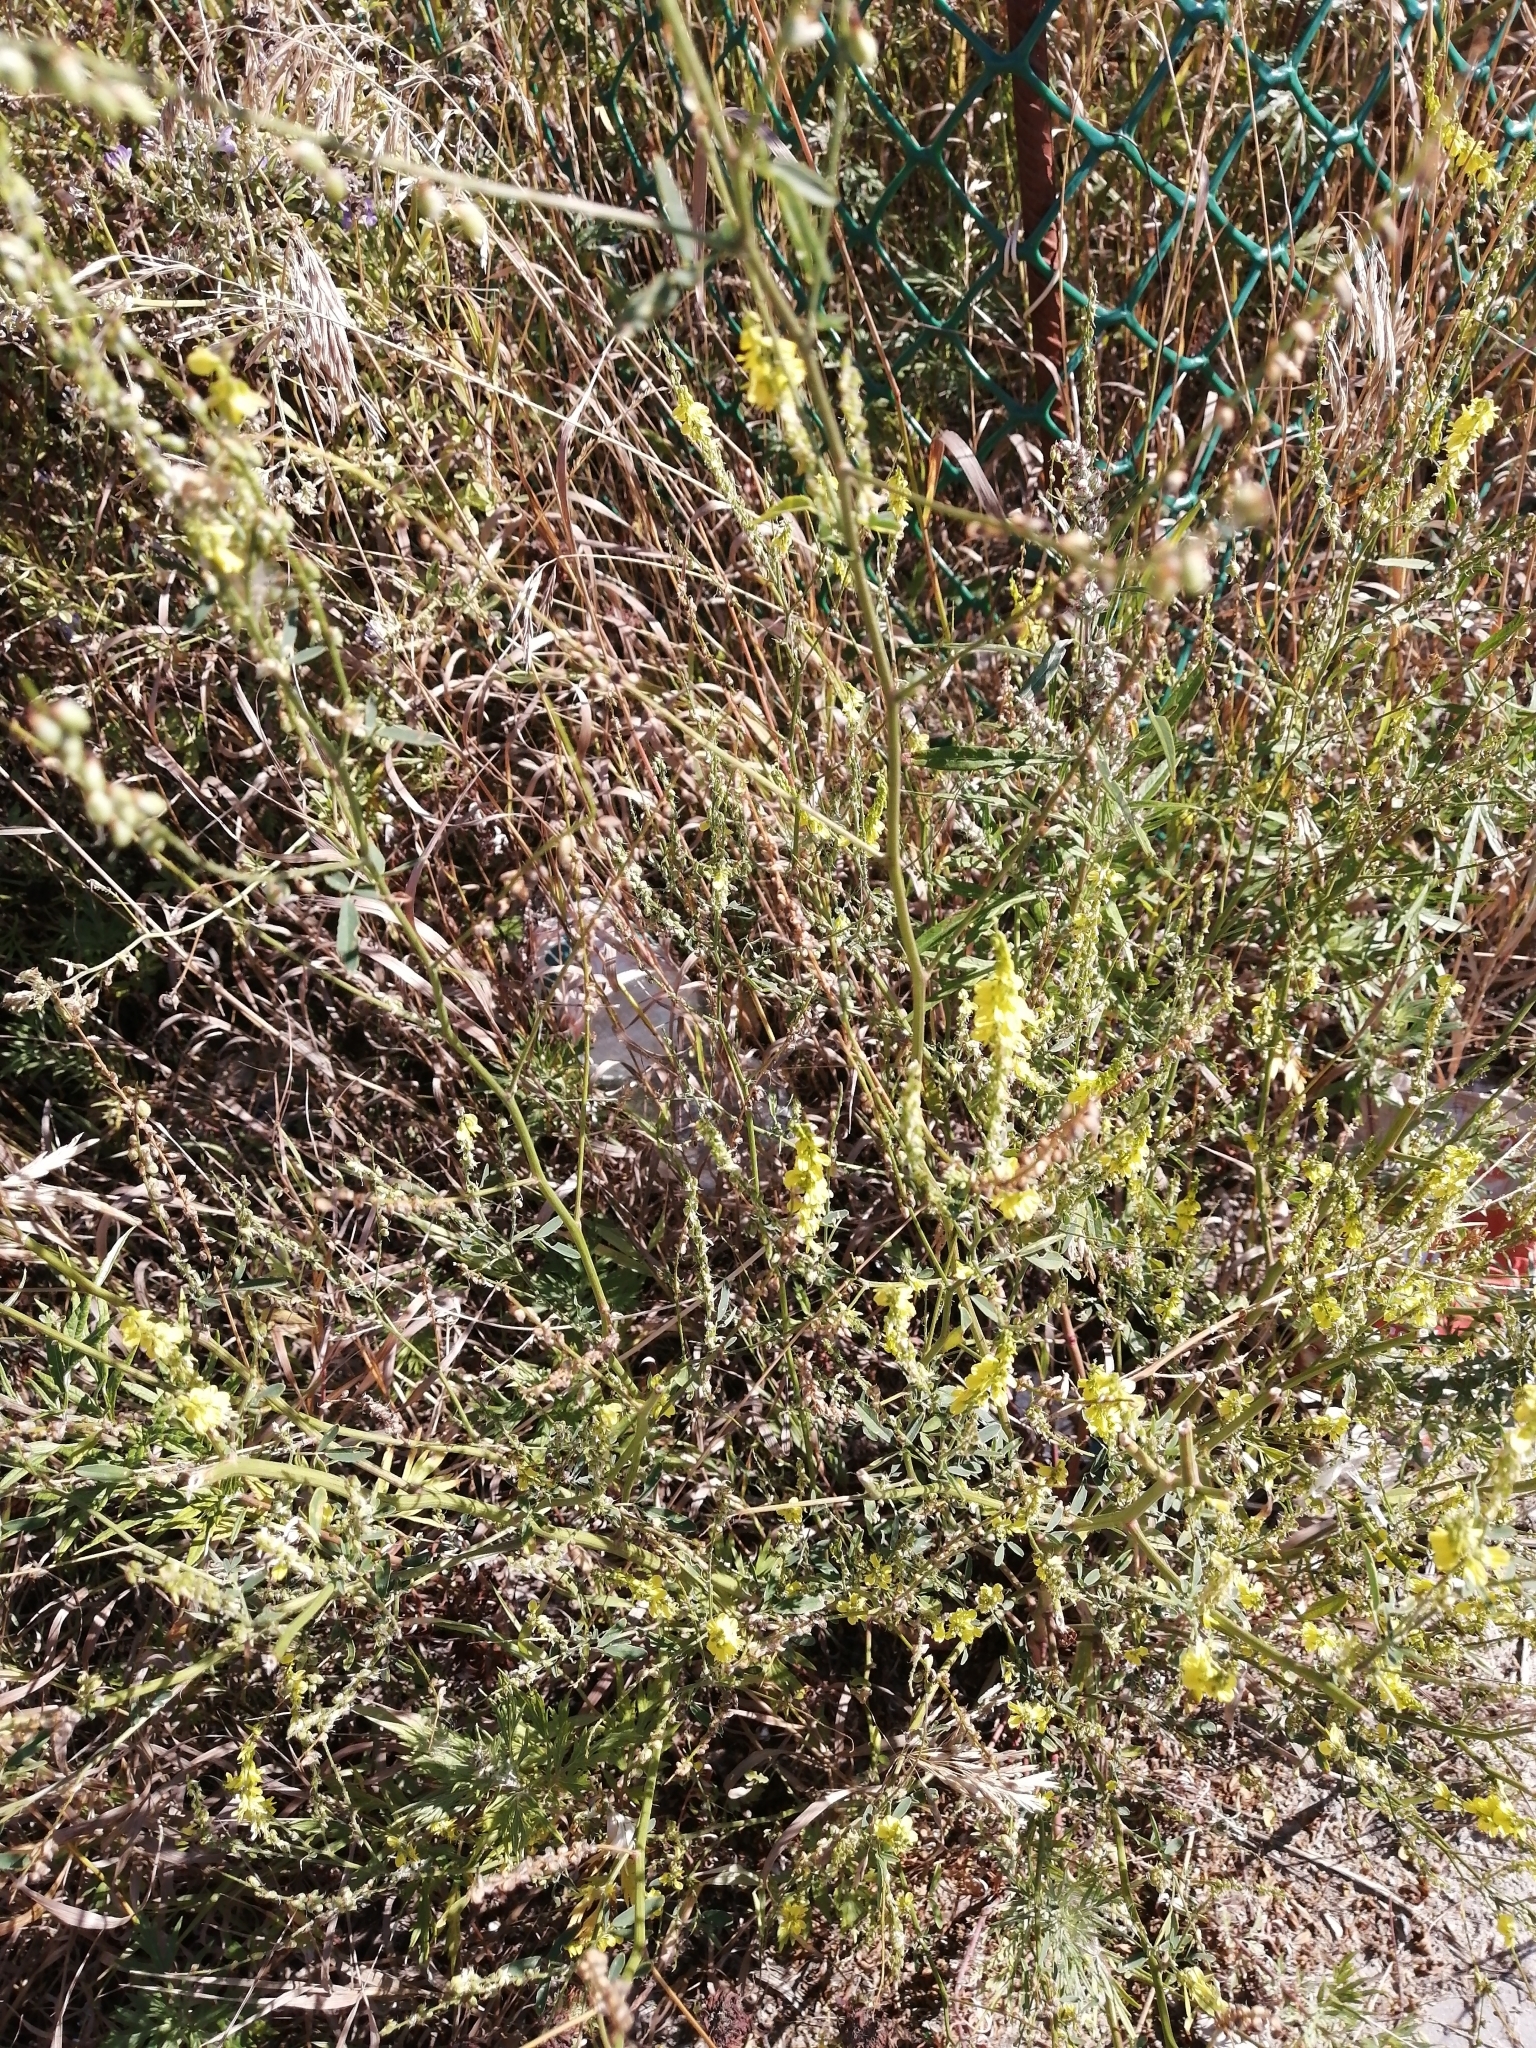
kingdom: Plantae
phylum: Tracheophyta
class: Magnoliopsida
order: Fabales
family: Fabaceae
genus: Melilotus
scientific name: Melilotus officinalis
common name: Sweetclover
